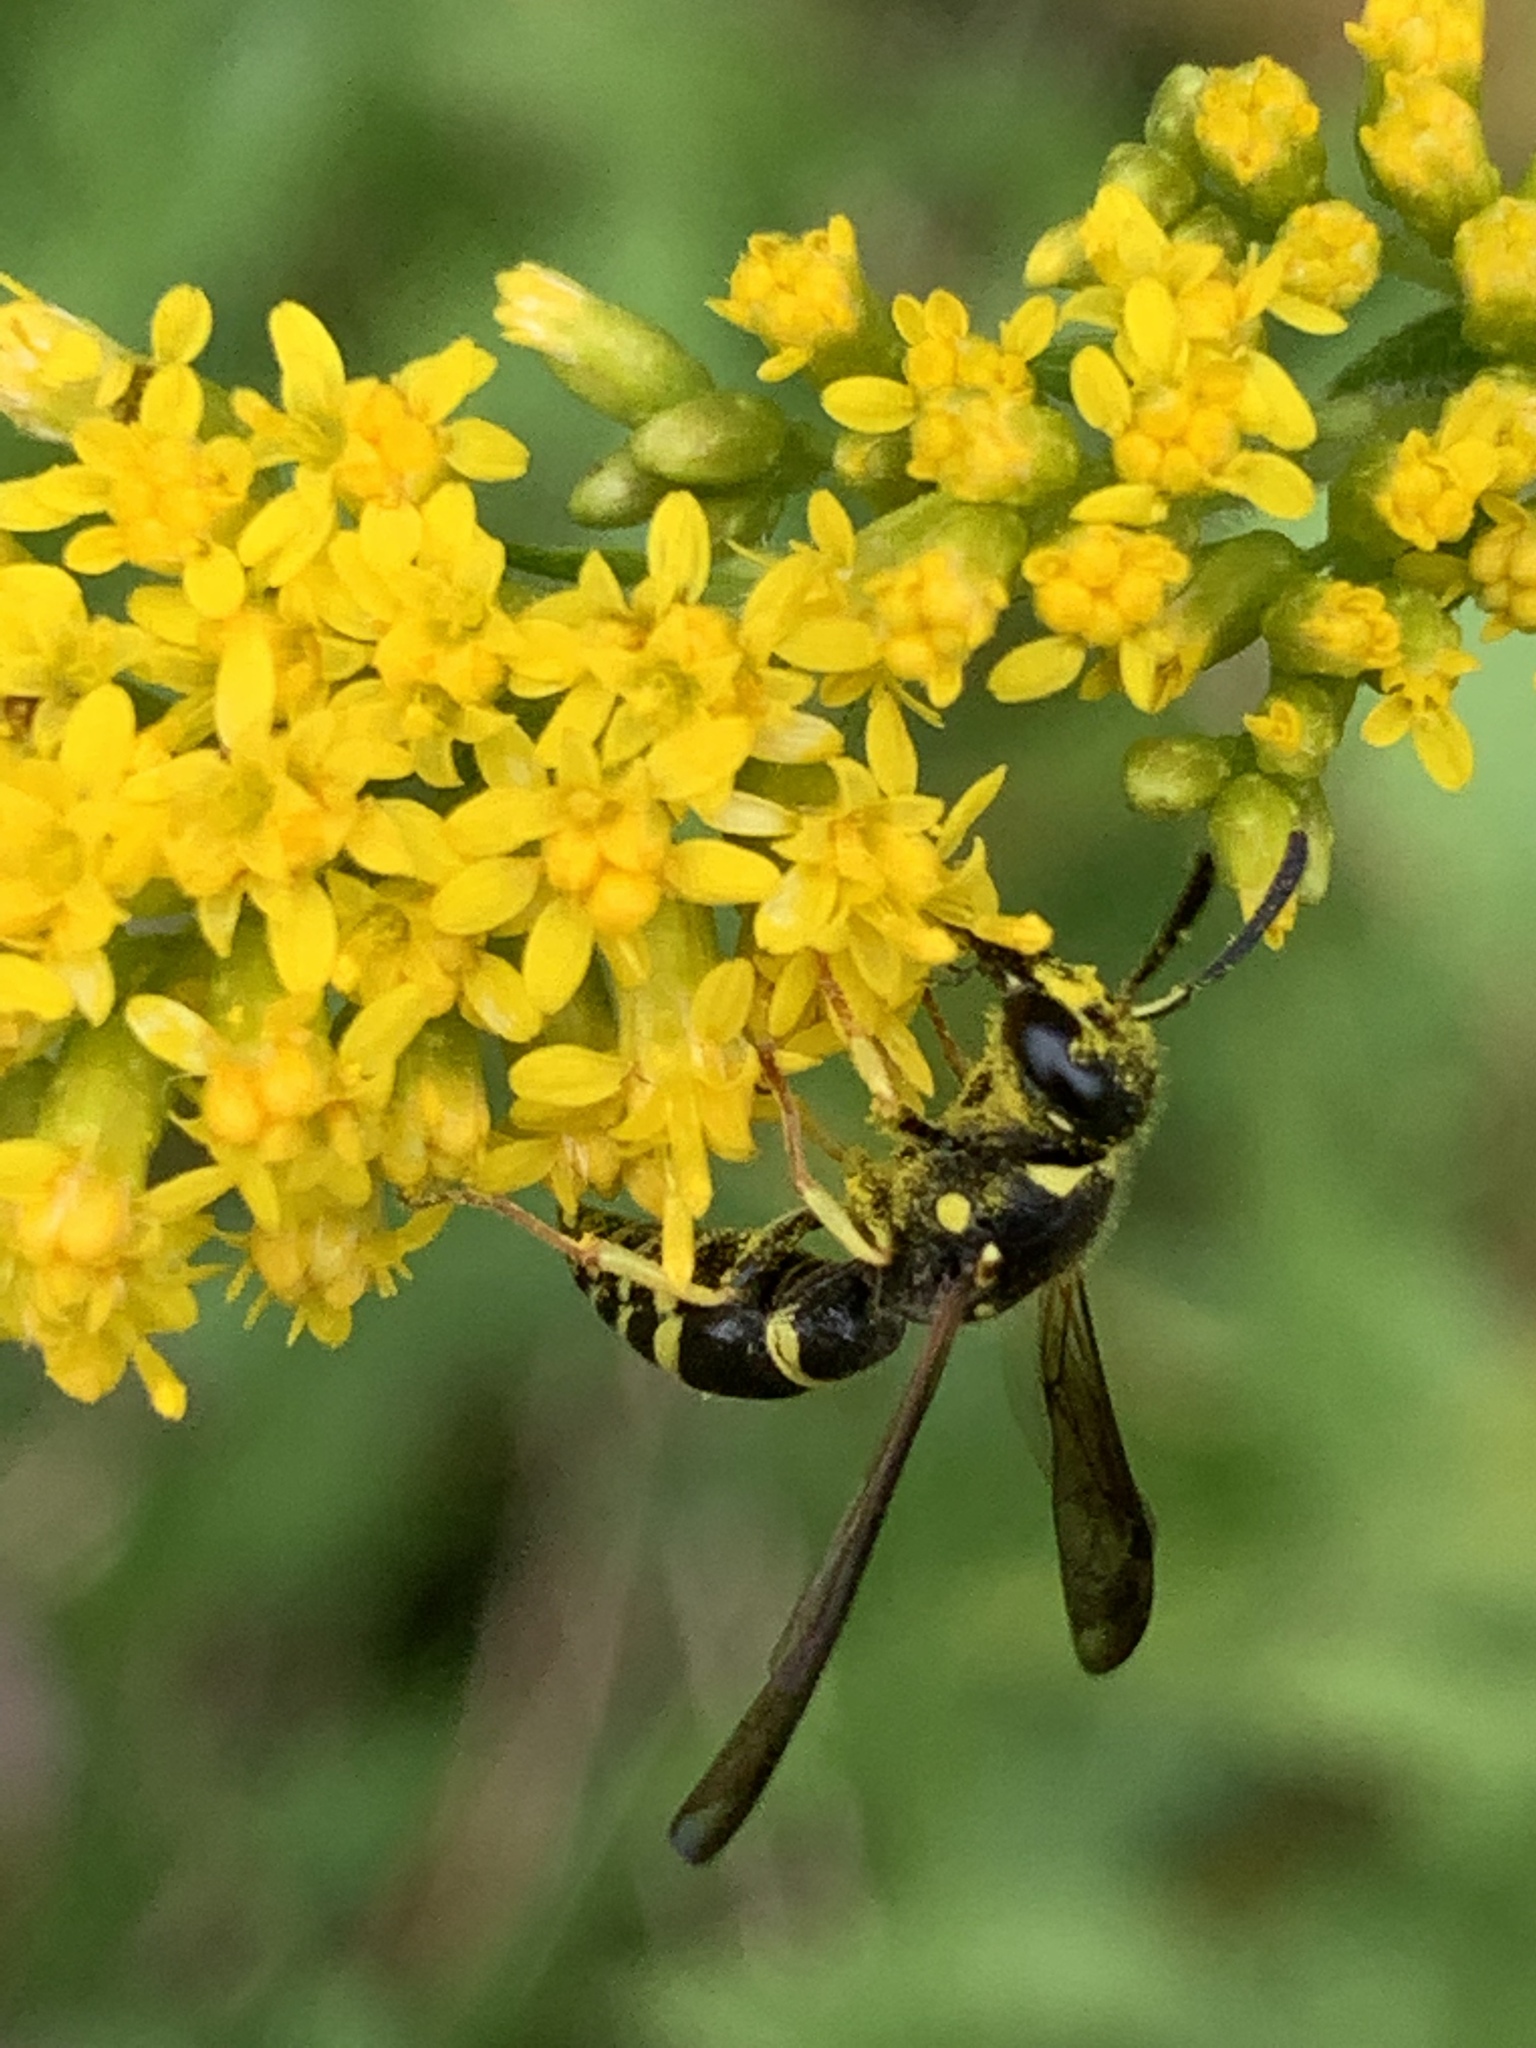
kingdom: Animalia
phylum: Arthropoda
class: Insecta
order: Hymenoptera
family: Vespidae
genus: Ancistrocerus
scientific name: Ancistrocerus
